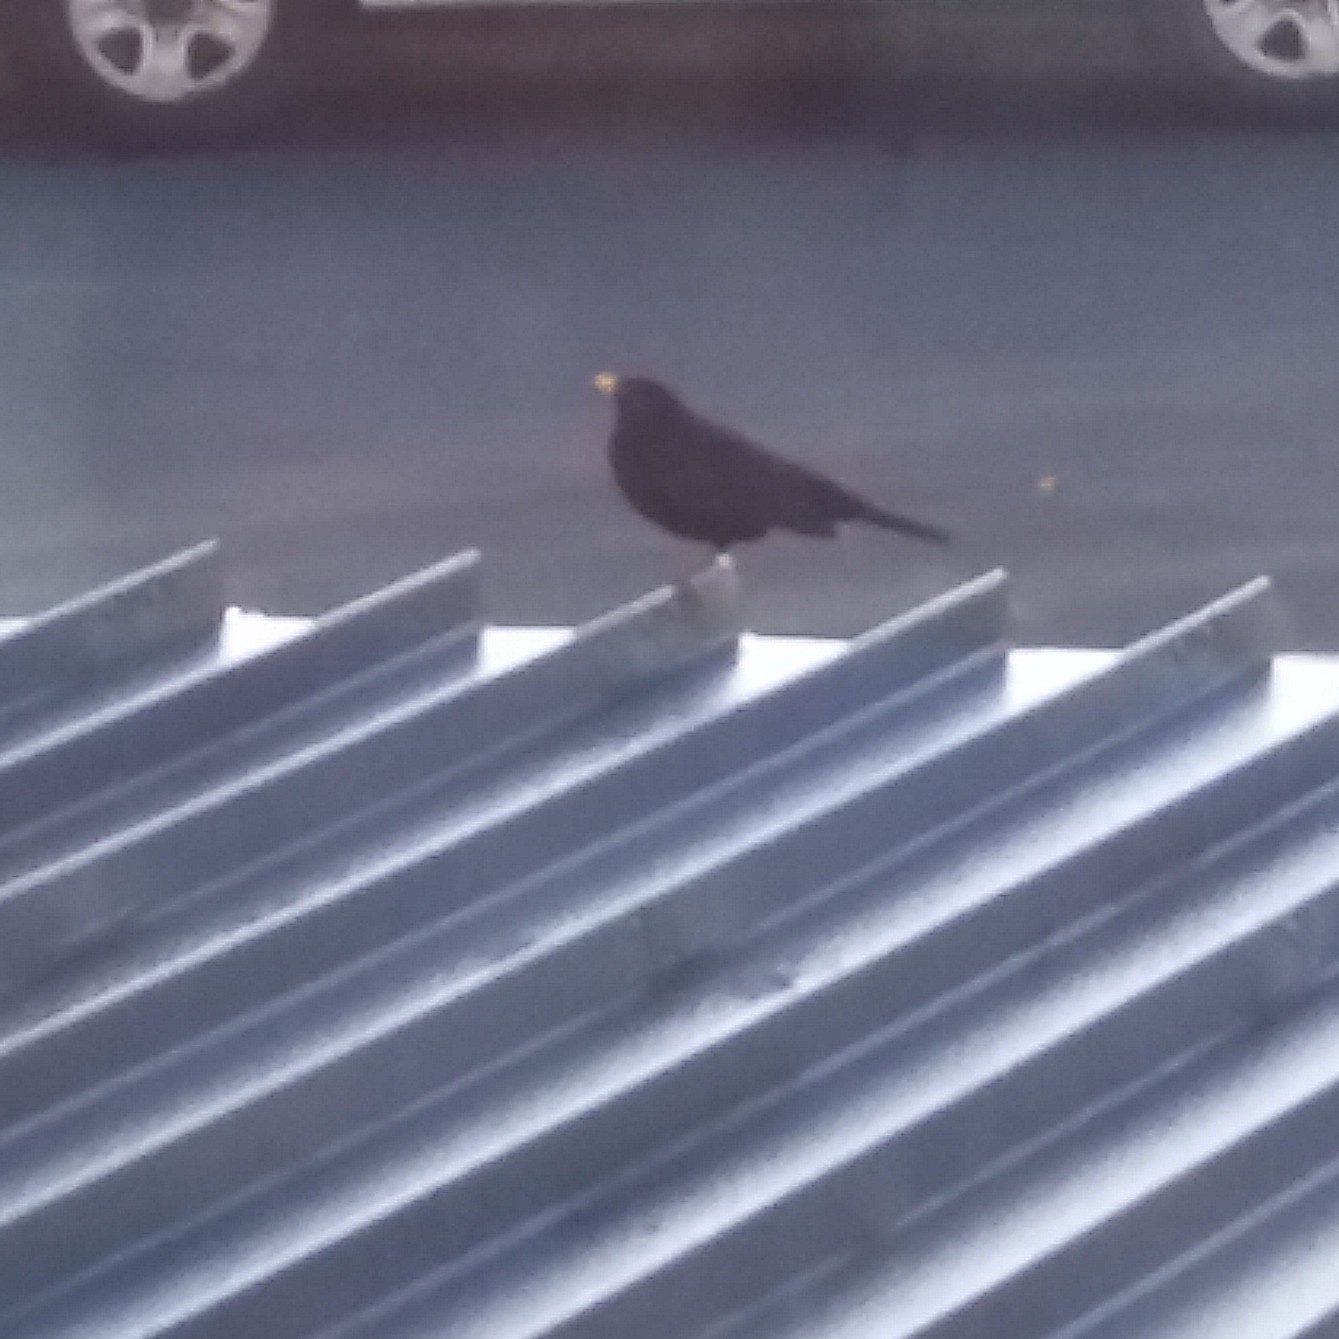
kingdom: Animalia
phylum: Chordata
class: Aves
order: Passeriformes
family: Turdidae
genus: Turdus
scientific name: Turdus merula
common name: Common blackbird
